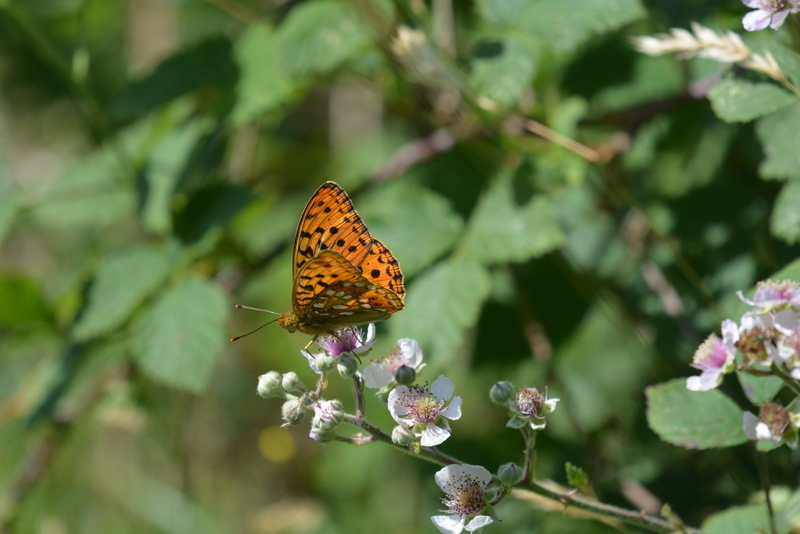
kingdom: Animalia
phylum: Arthropoda
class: Insecta
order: Lepidoptera
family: Nymphalidae
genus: Fabriciana
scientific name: Fabriciana adippe
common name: High brown fritillary
